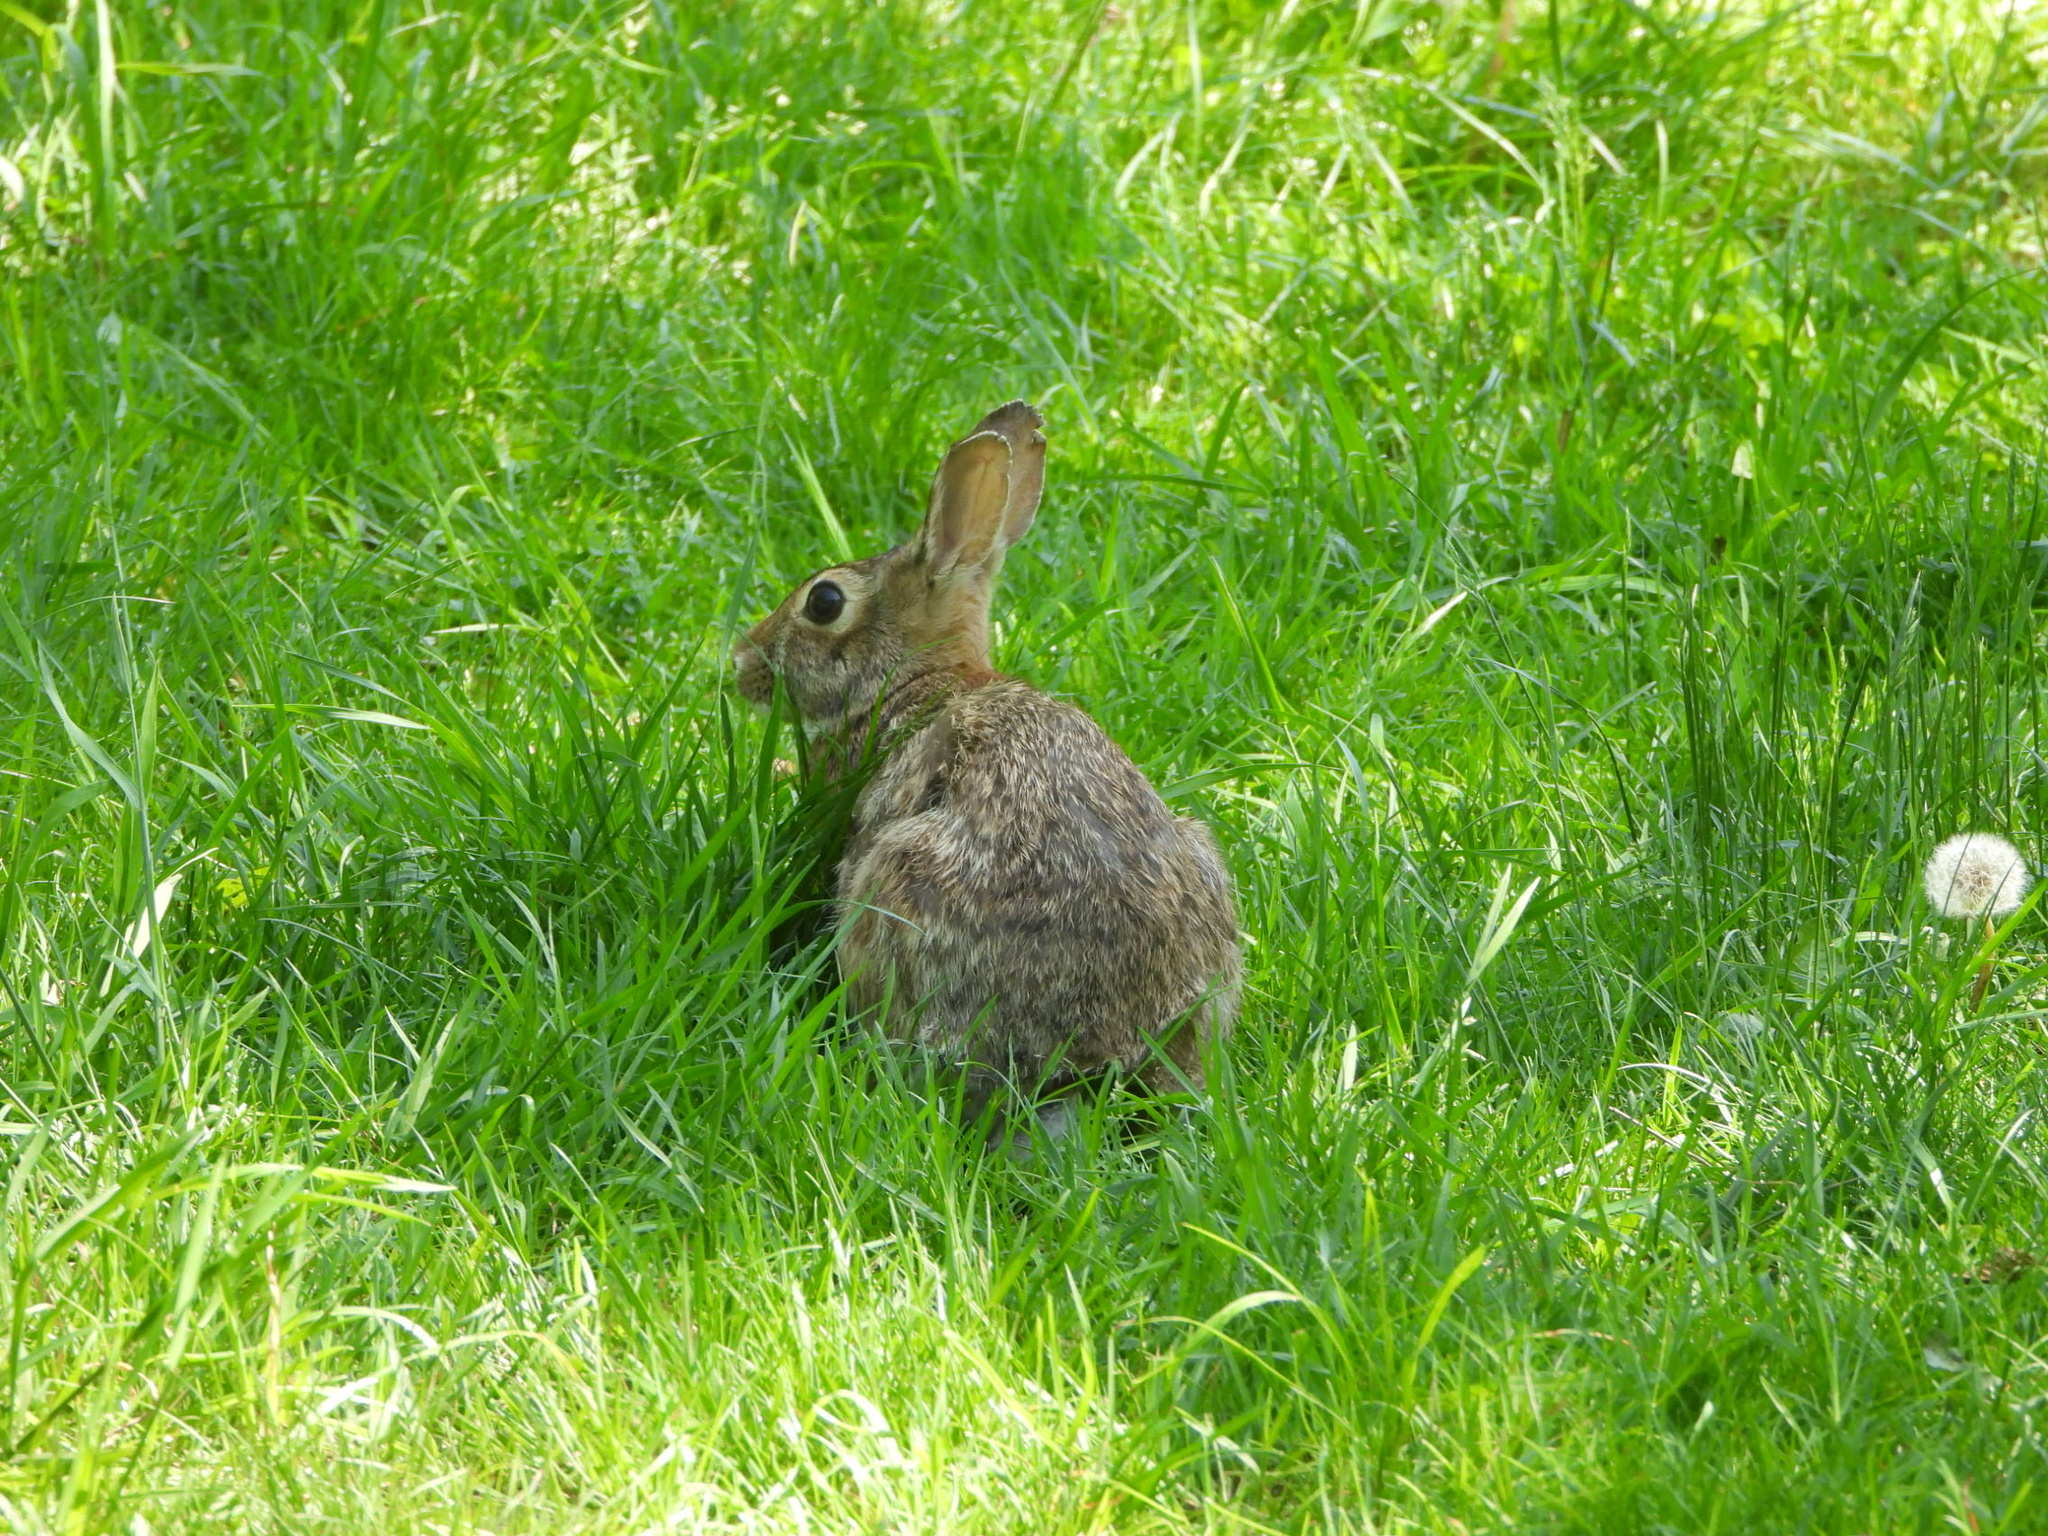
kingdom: Animalia
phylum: Chordata
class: Mammalia
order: Lagomorpha
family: Leporidae
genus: Sylvilagus
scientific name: Sylvilagus floridanus
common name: Eastern cottontail
